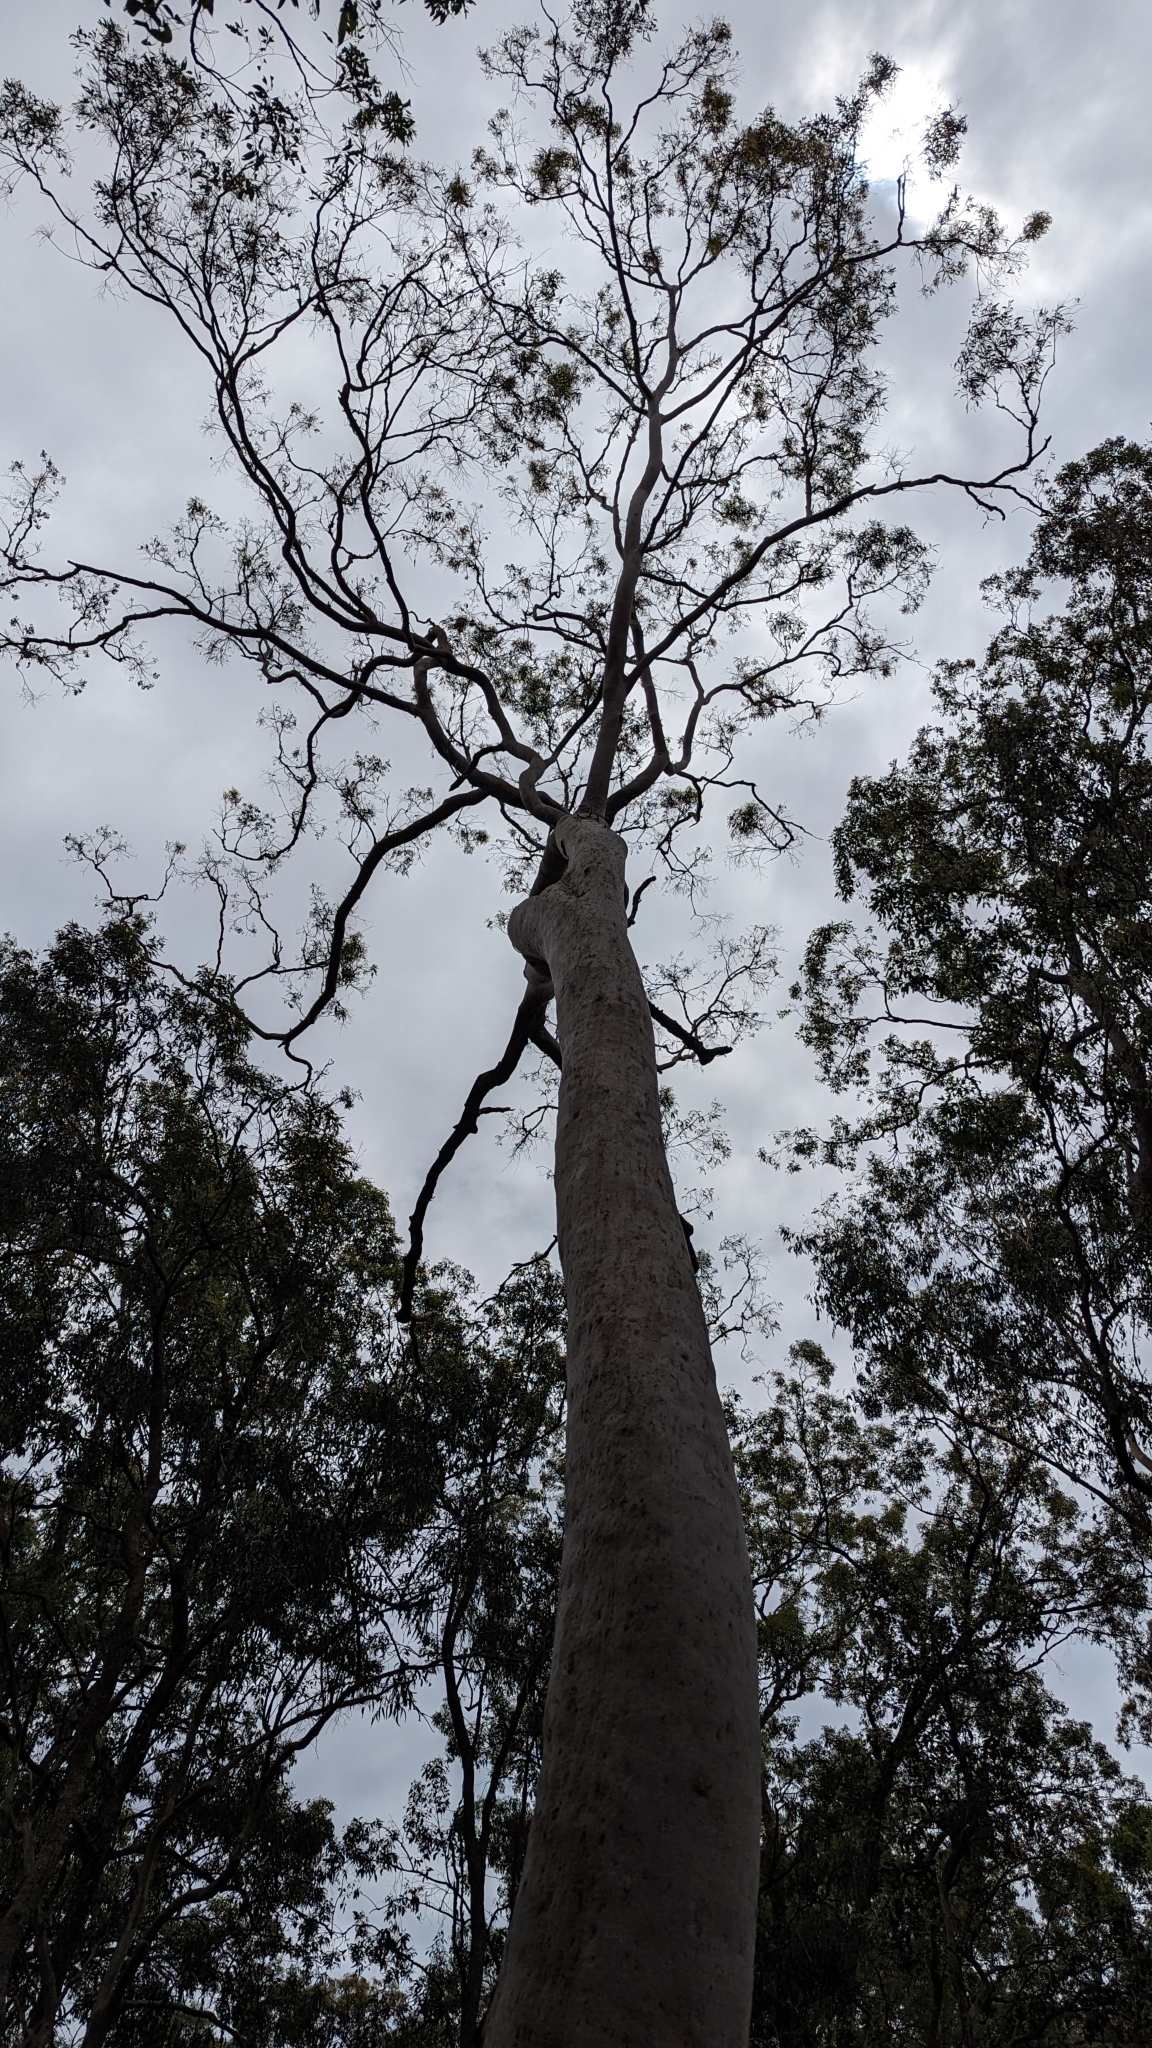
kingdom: Plantae
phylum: Tracheophyta
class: Magnoliopsida
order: Myrtales
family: Myrtaceae
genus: Angophora
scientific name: Angophora leiocarpa
